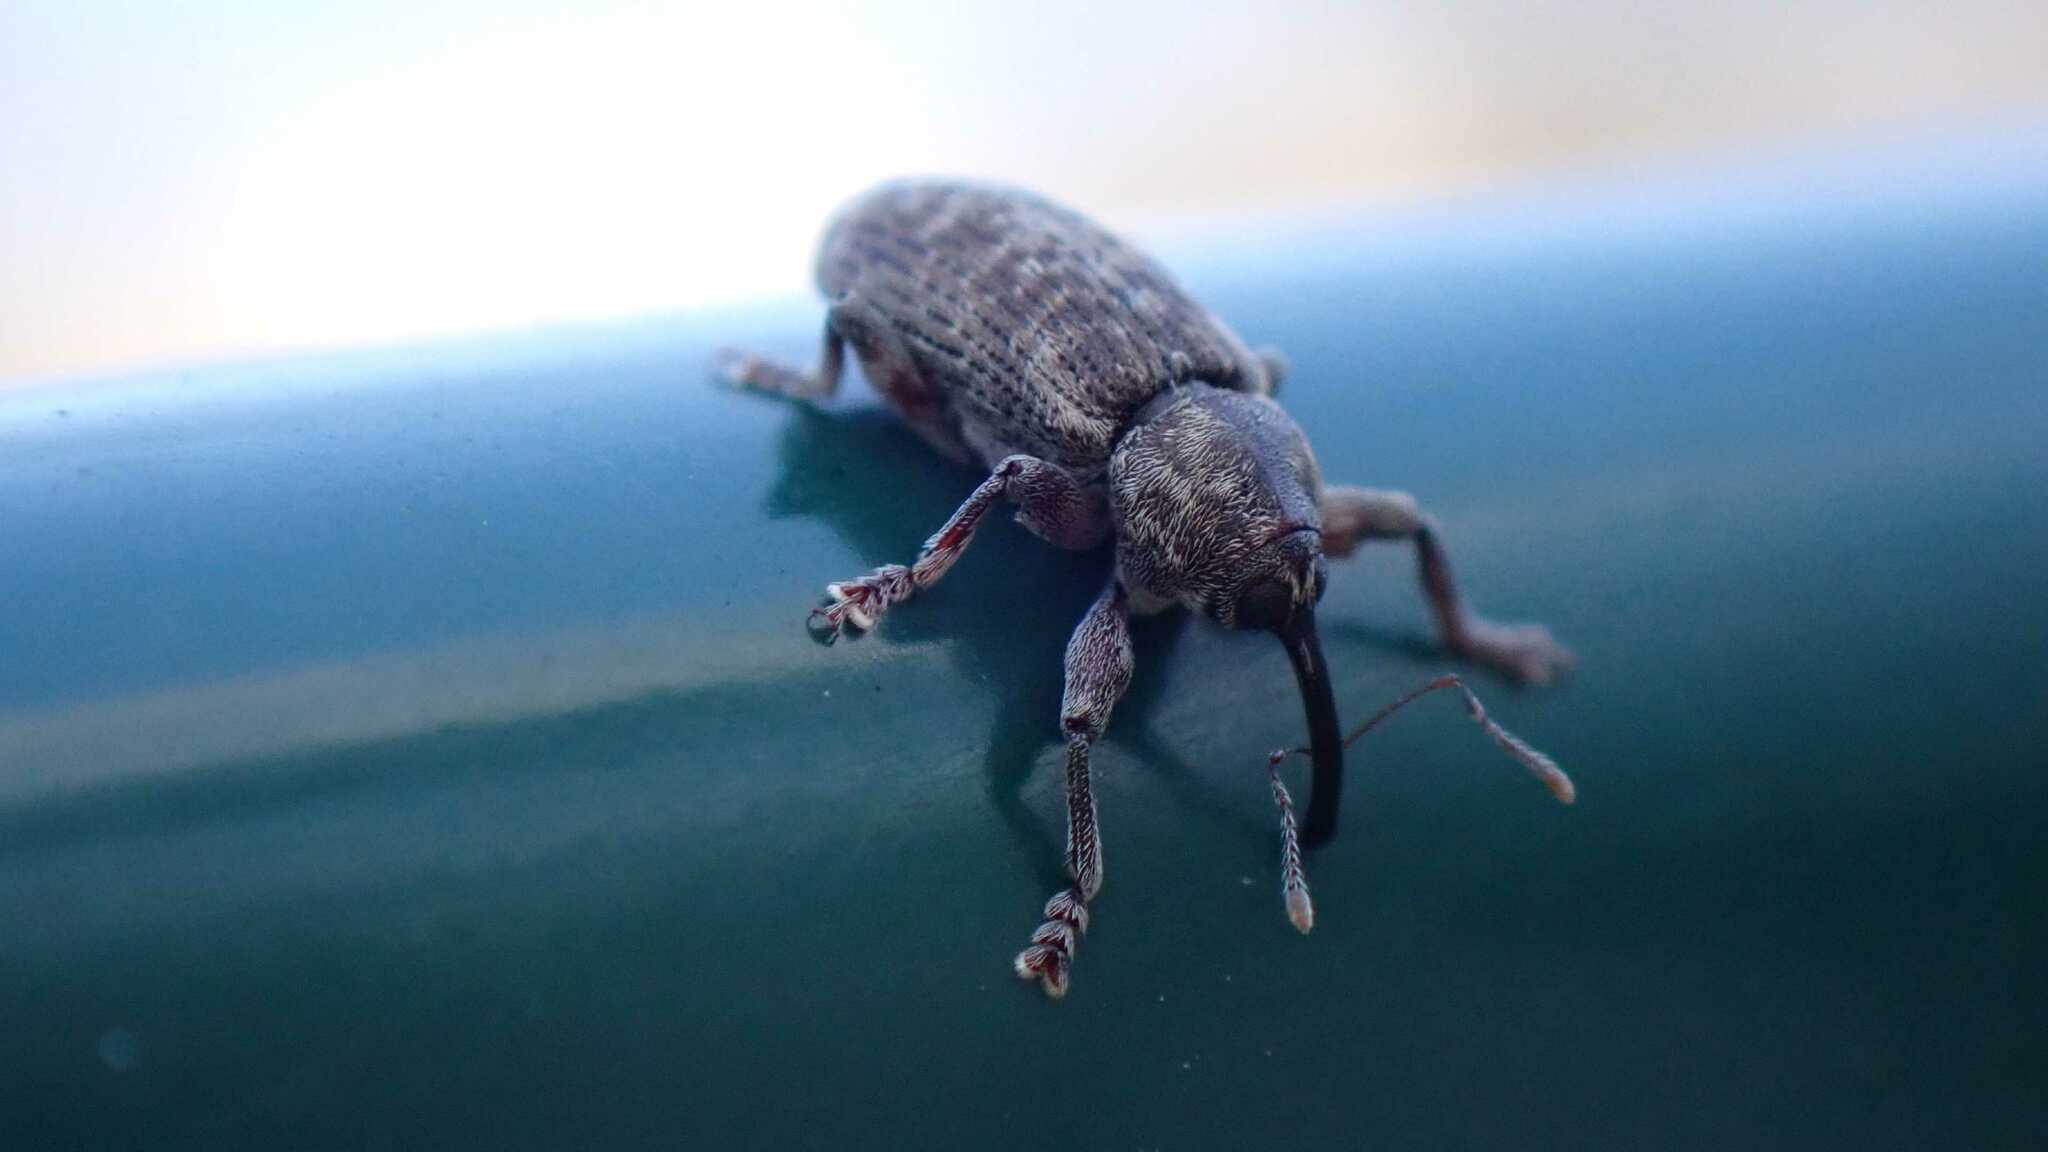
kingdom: Animalia
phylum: Arthropoda
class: Insecta
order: Coleoptera
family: Curculionidae
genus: Dorytomus
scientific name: Dorytomus tremulae
